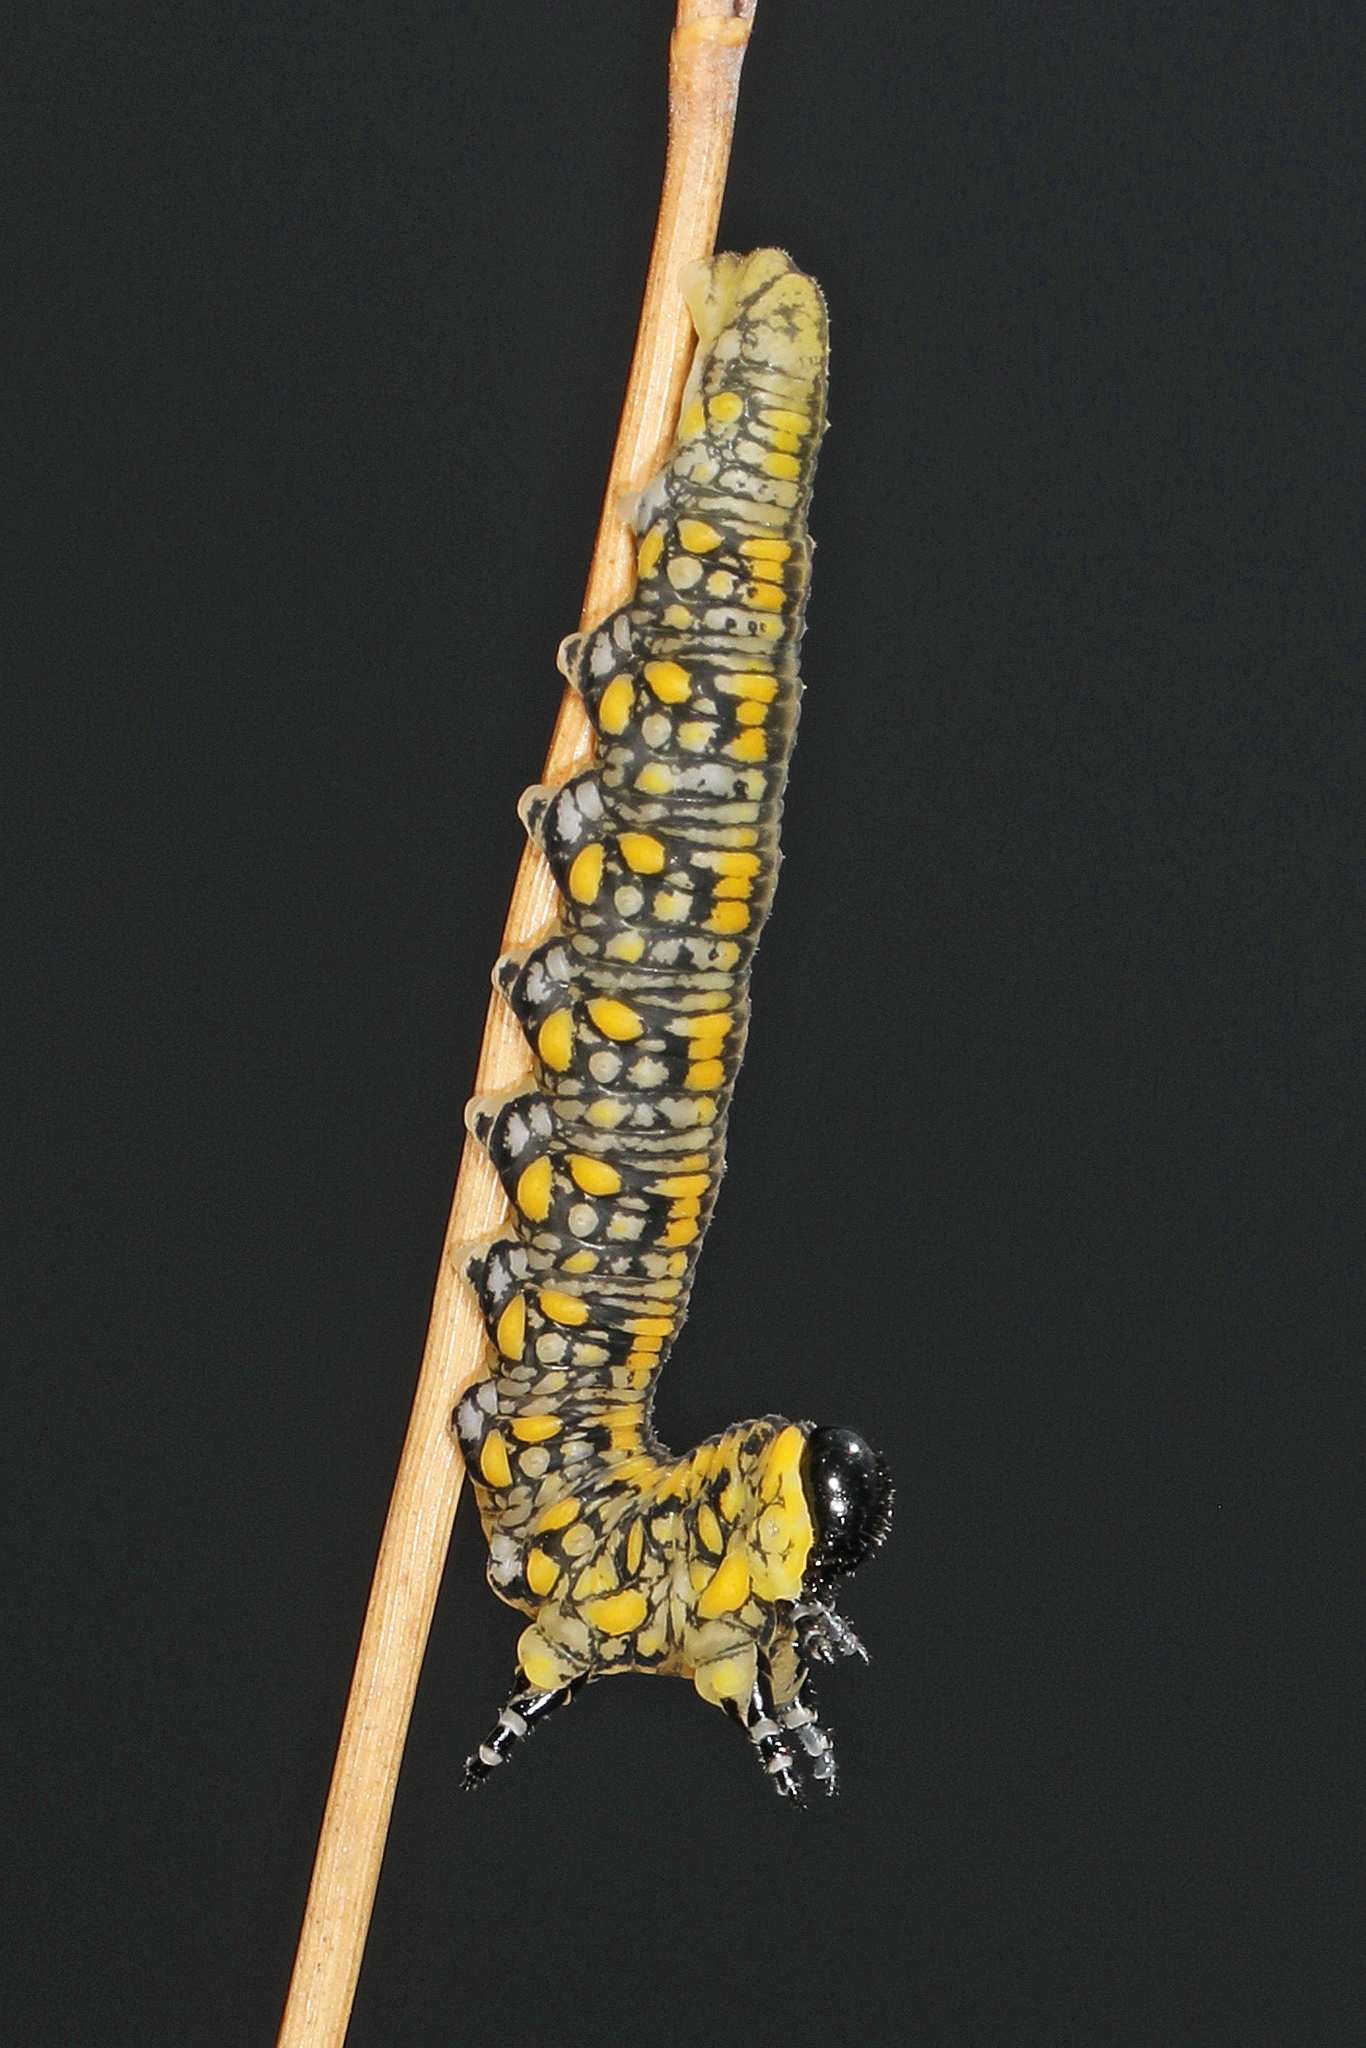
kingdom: Animalia
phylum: Arthropoda
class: Insecta
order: Hymenoptera
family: Diprionidae
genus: Diprion
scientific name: Diprion similis
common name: Pine sawfly
